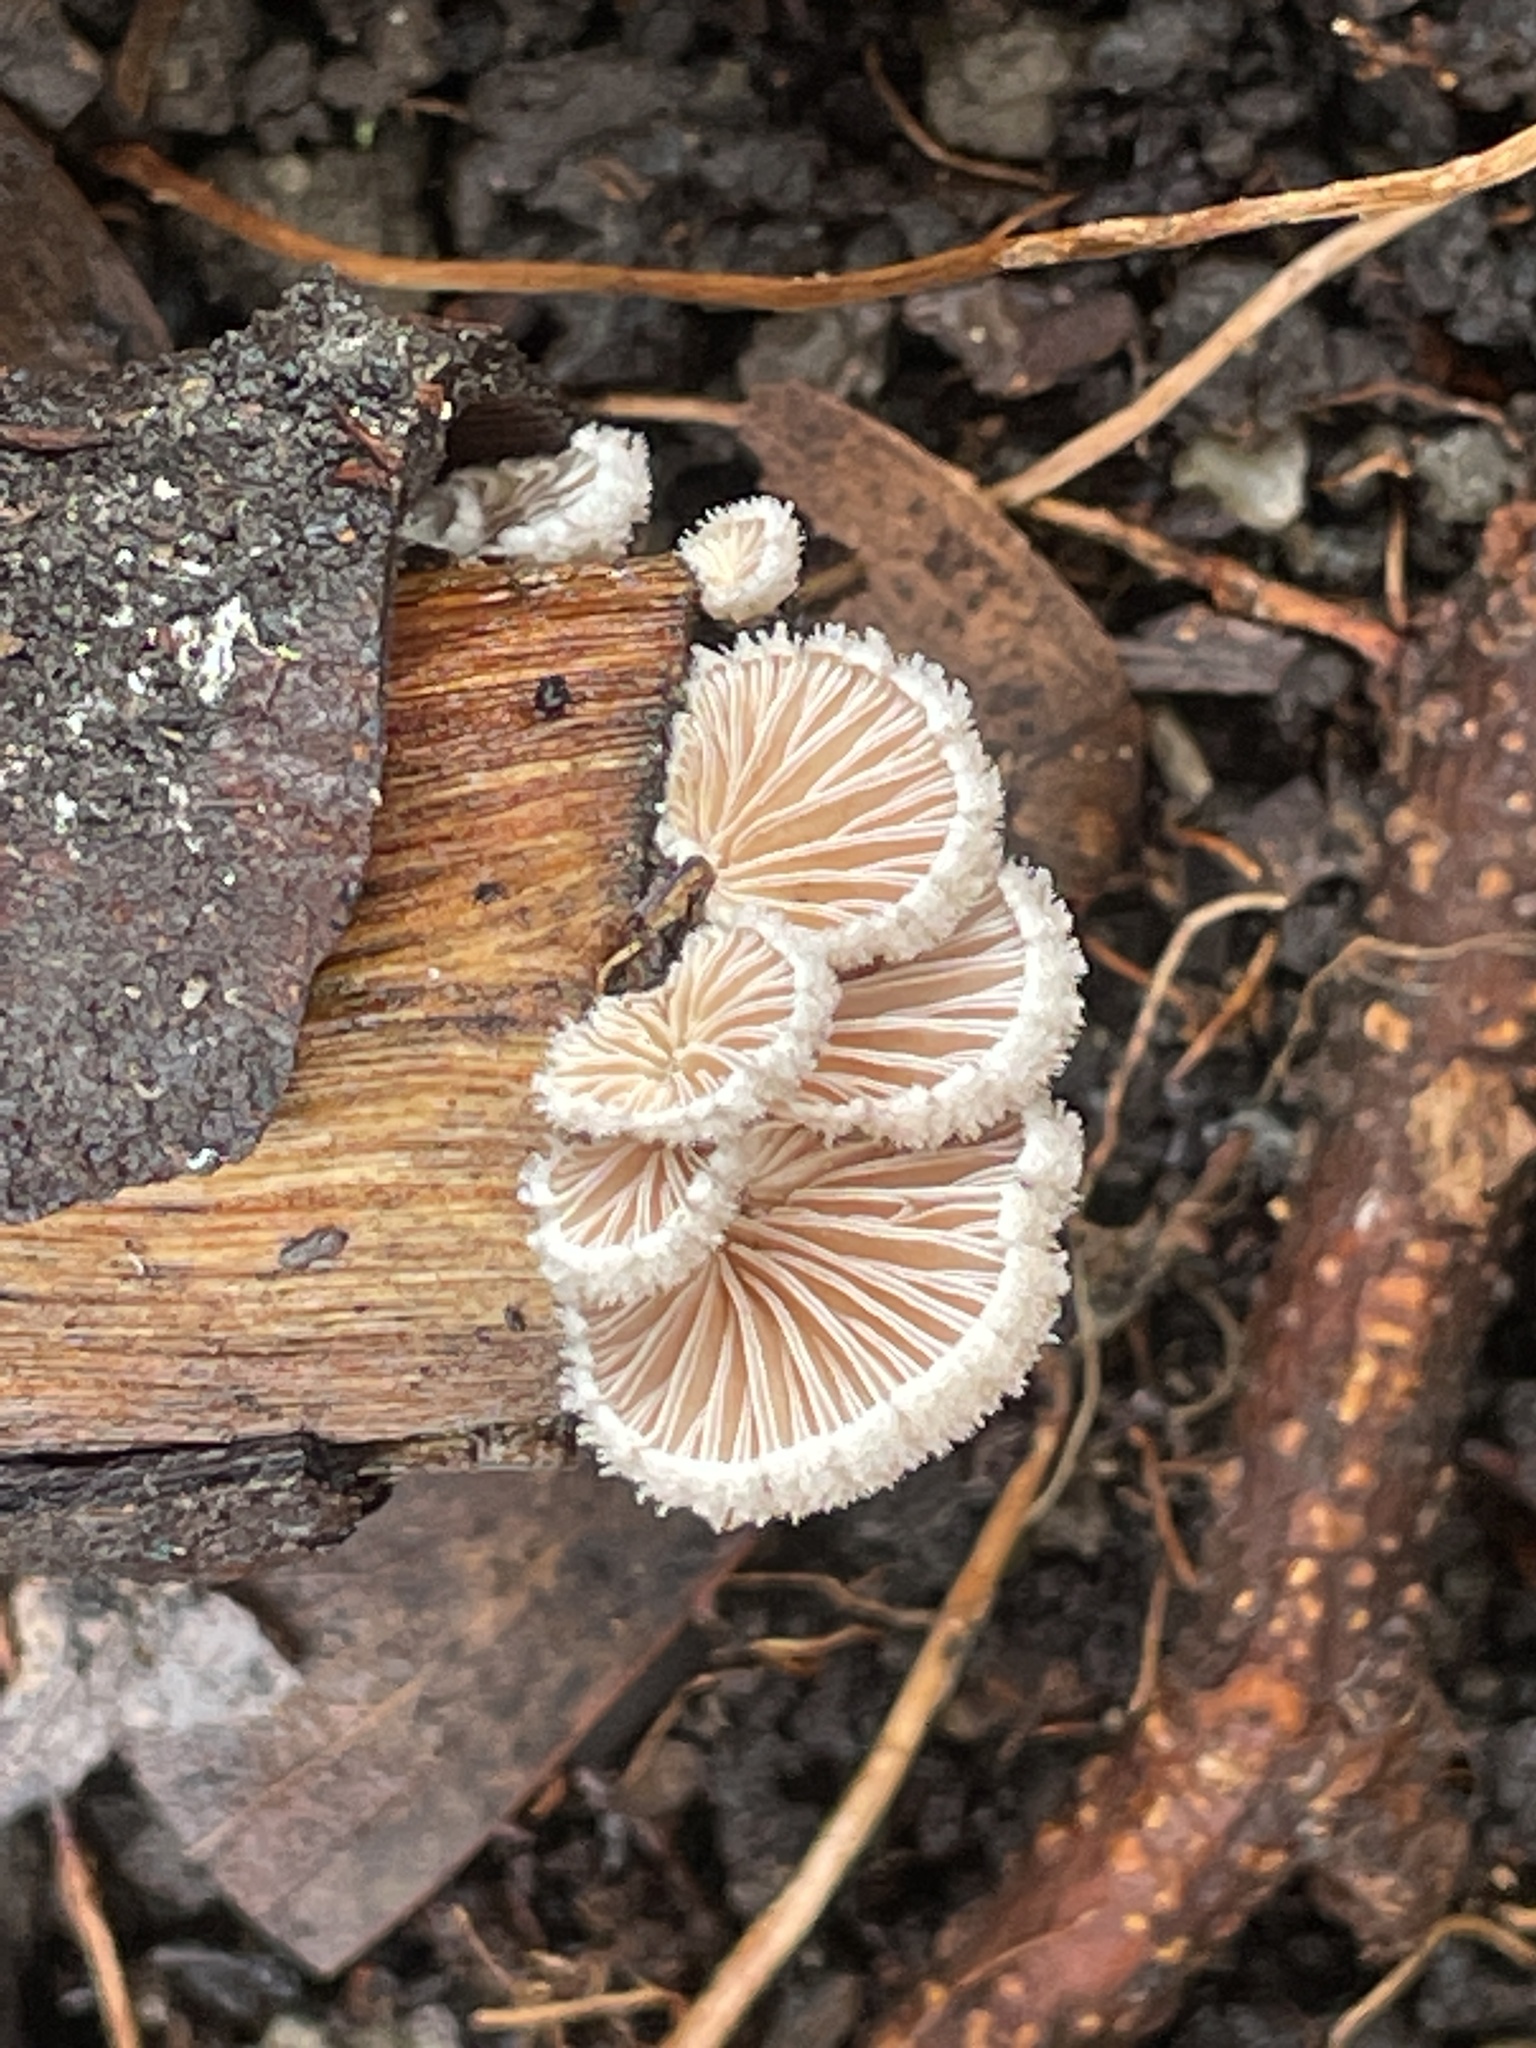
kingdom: Fungi
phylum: Basidiomycota
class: Agaricomycetes
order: Agaricales
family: Schizophyllaceae
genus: Schizophyllum
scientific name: Schizophyllum commune
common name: Common porecrust
